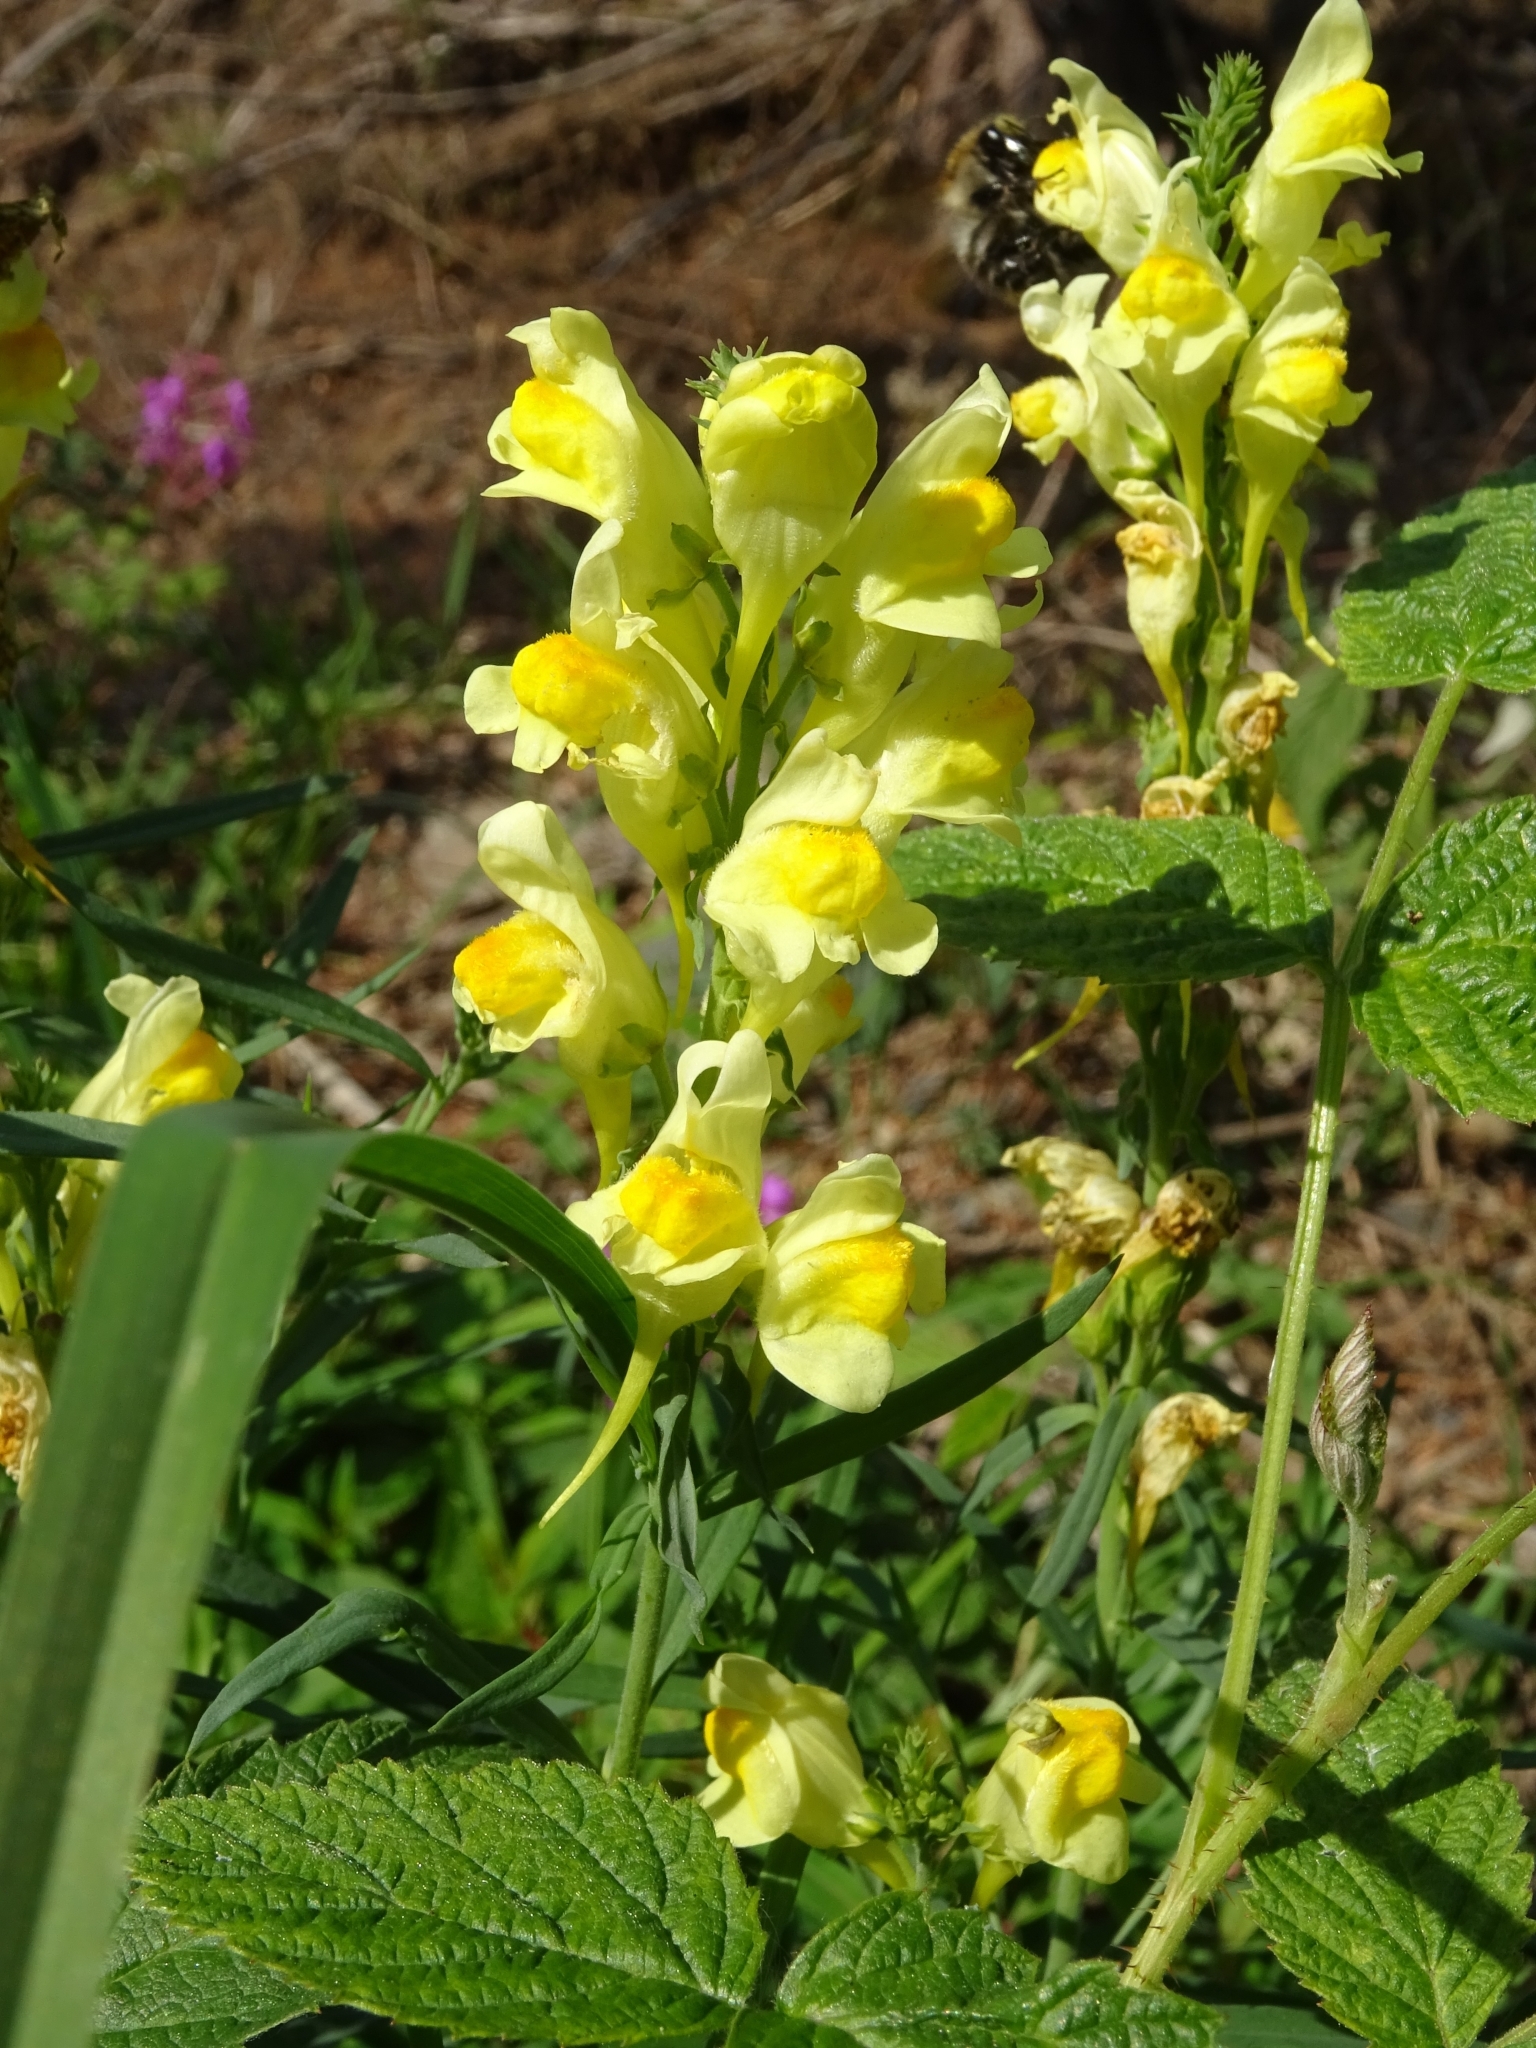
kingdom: Plantae
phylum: Tracheophyta
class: Magnoliopsida
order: Lamiales
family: Plantaginaceae
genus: Linaria
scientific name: Linaria vulgaris
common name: Butter and eggs
